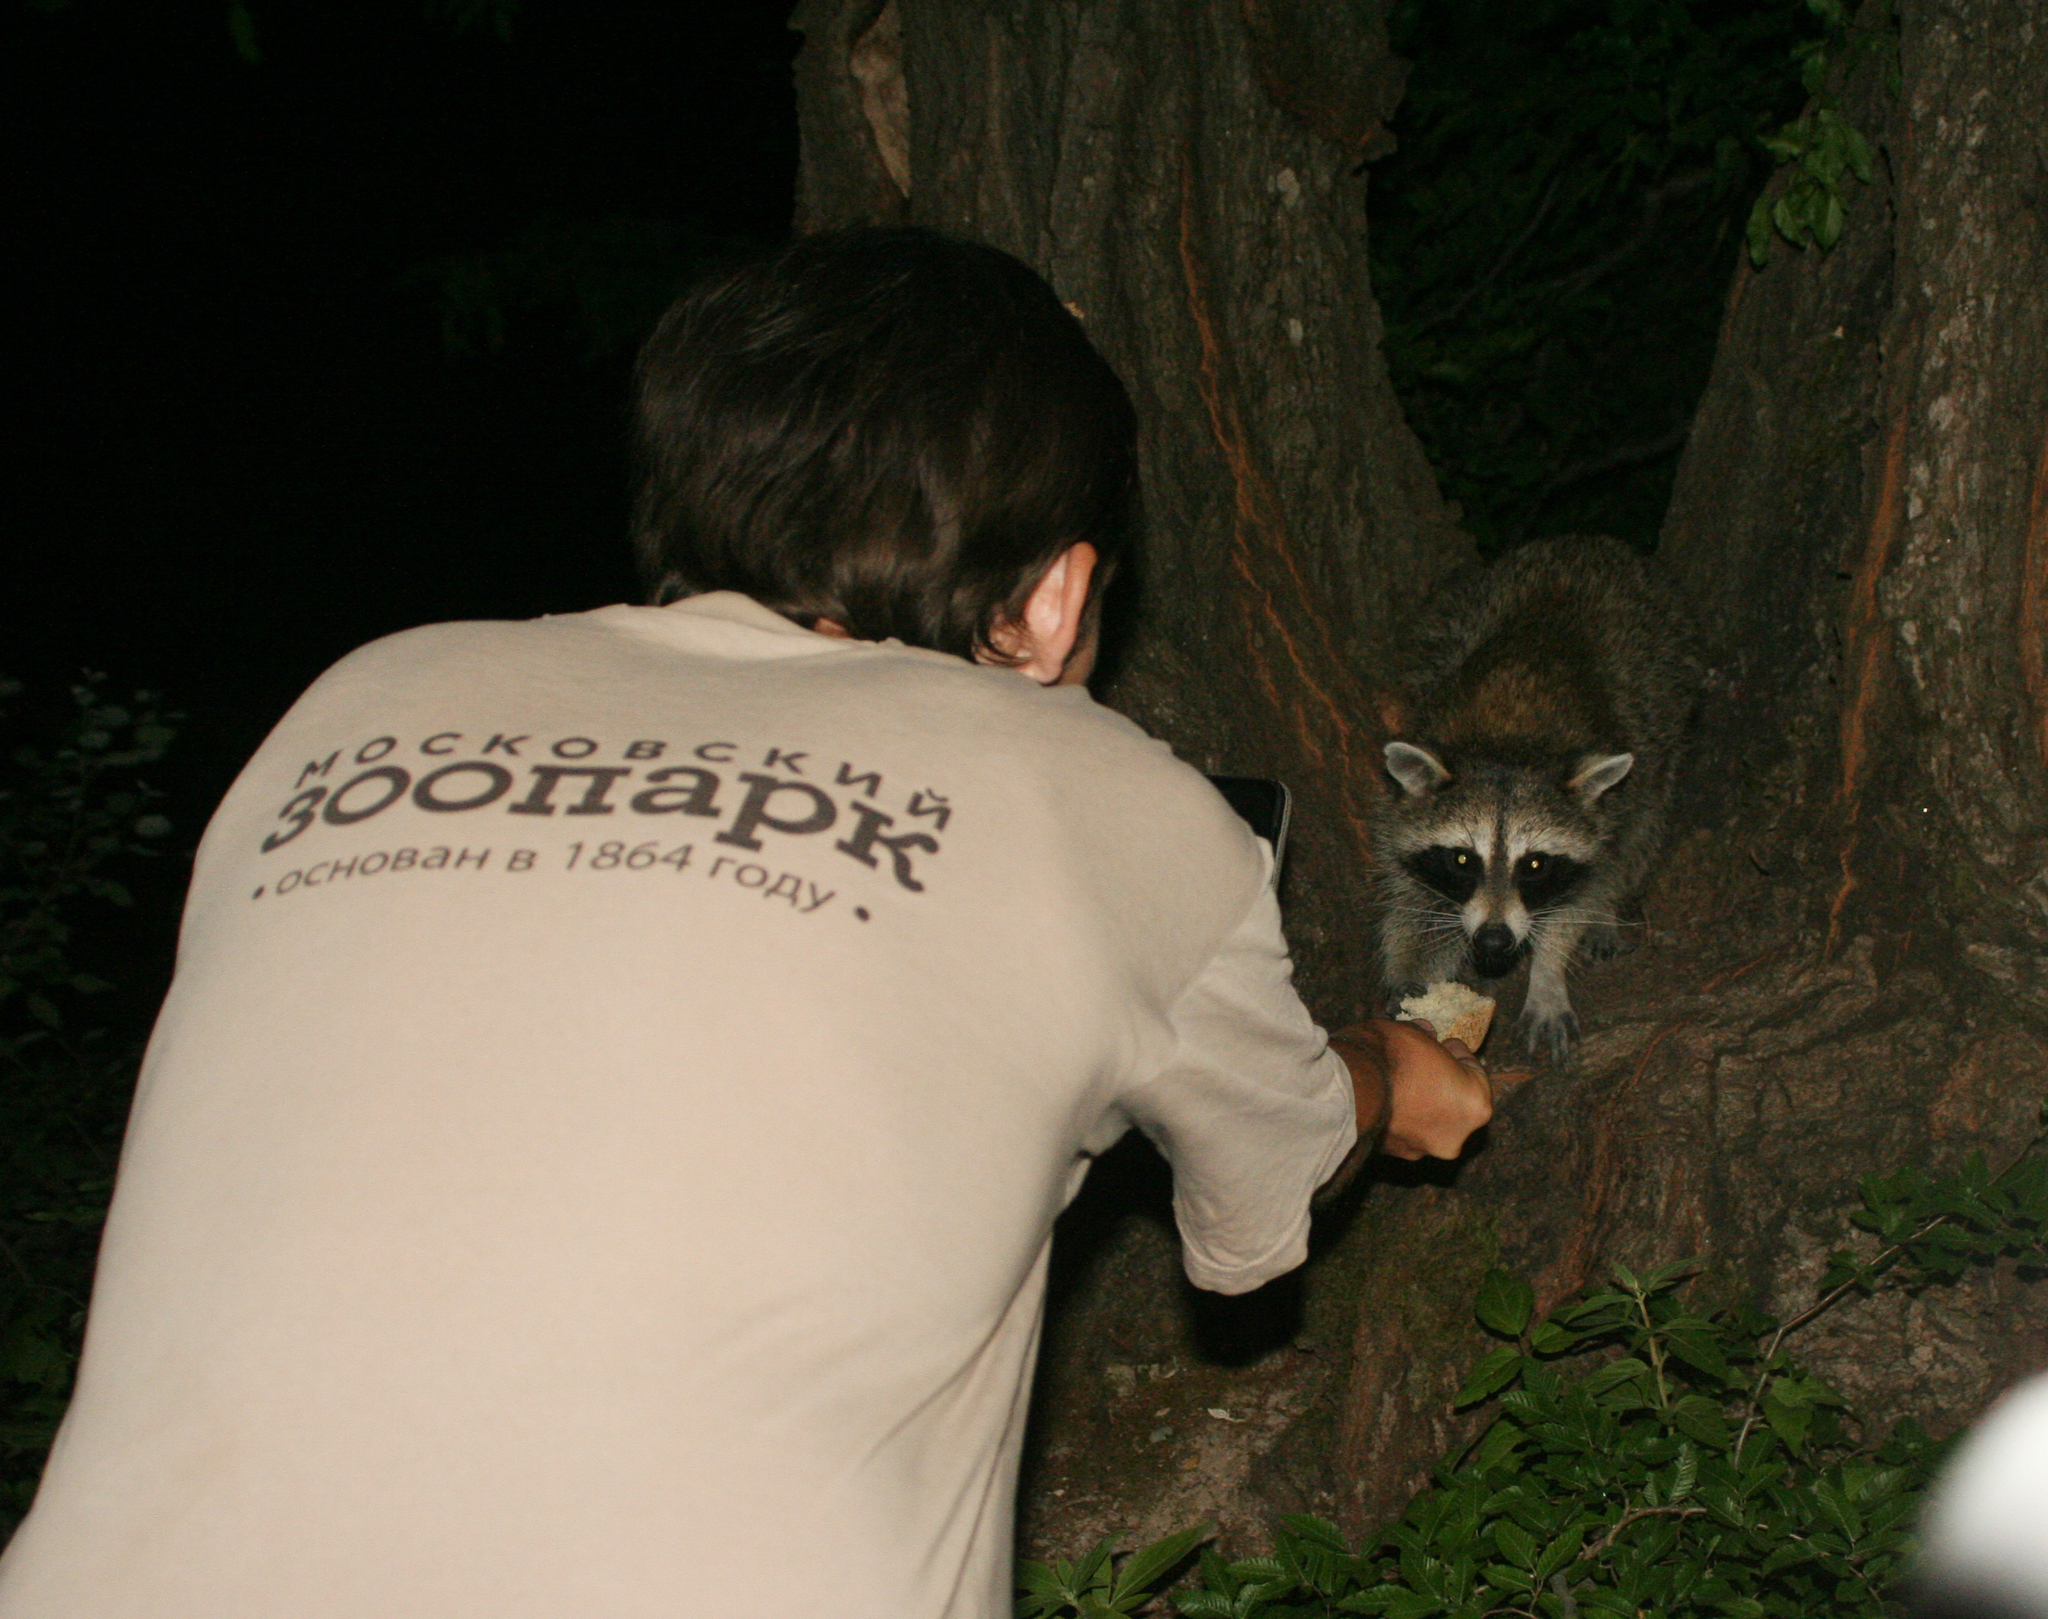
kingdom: Animalia
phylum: Chordata
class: Mammalia
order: Carnivora
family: Procyonidae
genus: Procyon
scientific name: Procyon lotor
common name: Raccoon
